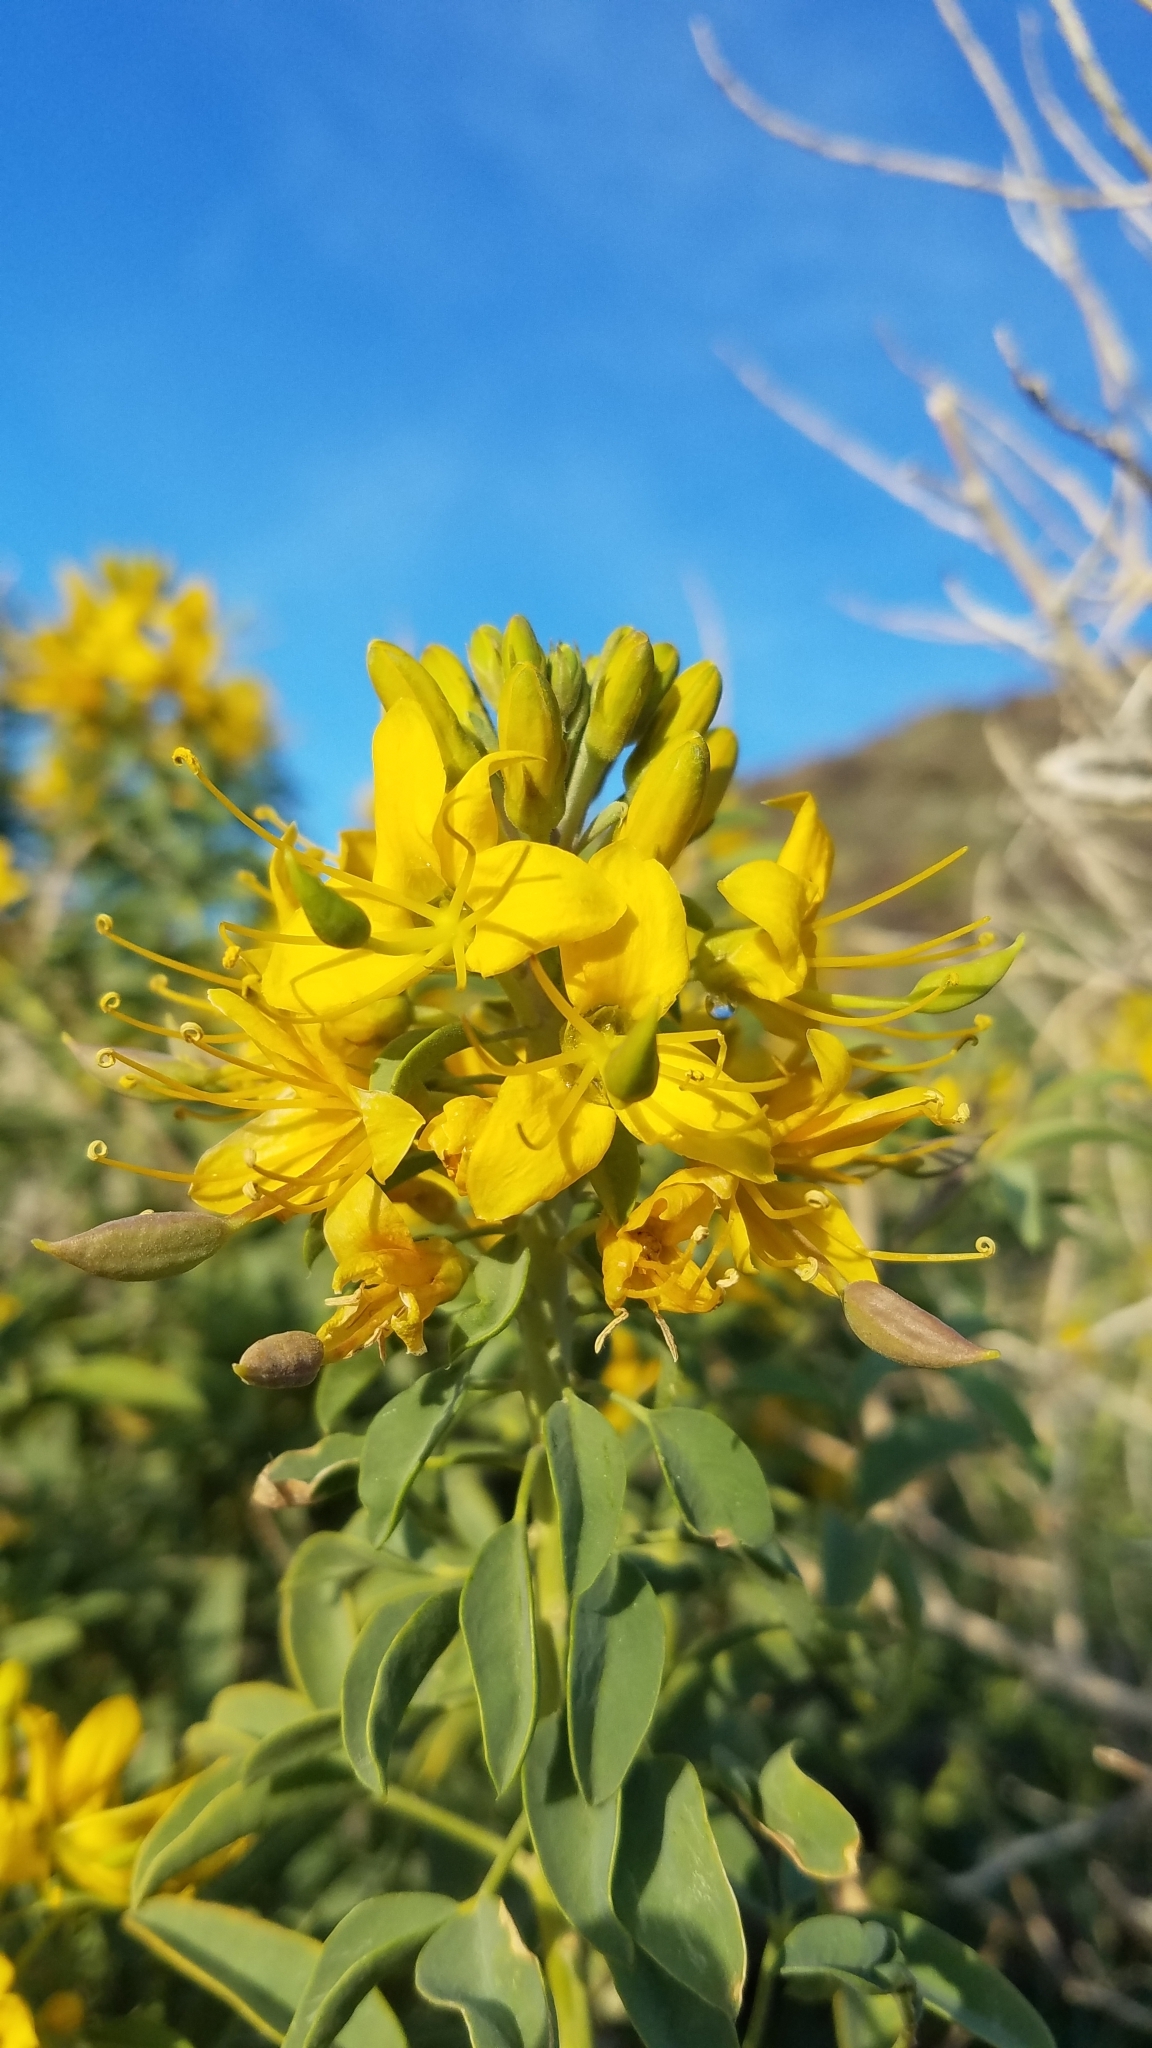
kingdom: Plantae
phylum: Tracheophyta
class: Magnoliopsida
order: Brassicales
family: Cleomaceae
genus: Cleomella
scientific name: Cleomella arborea
